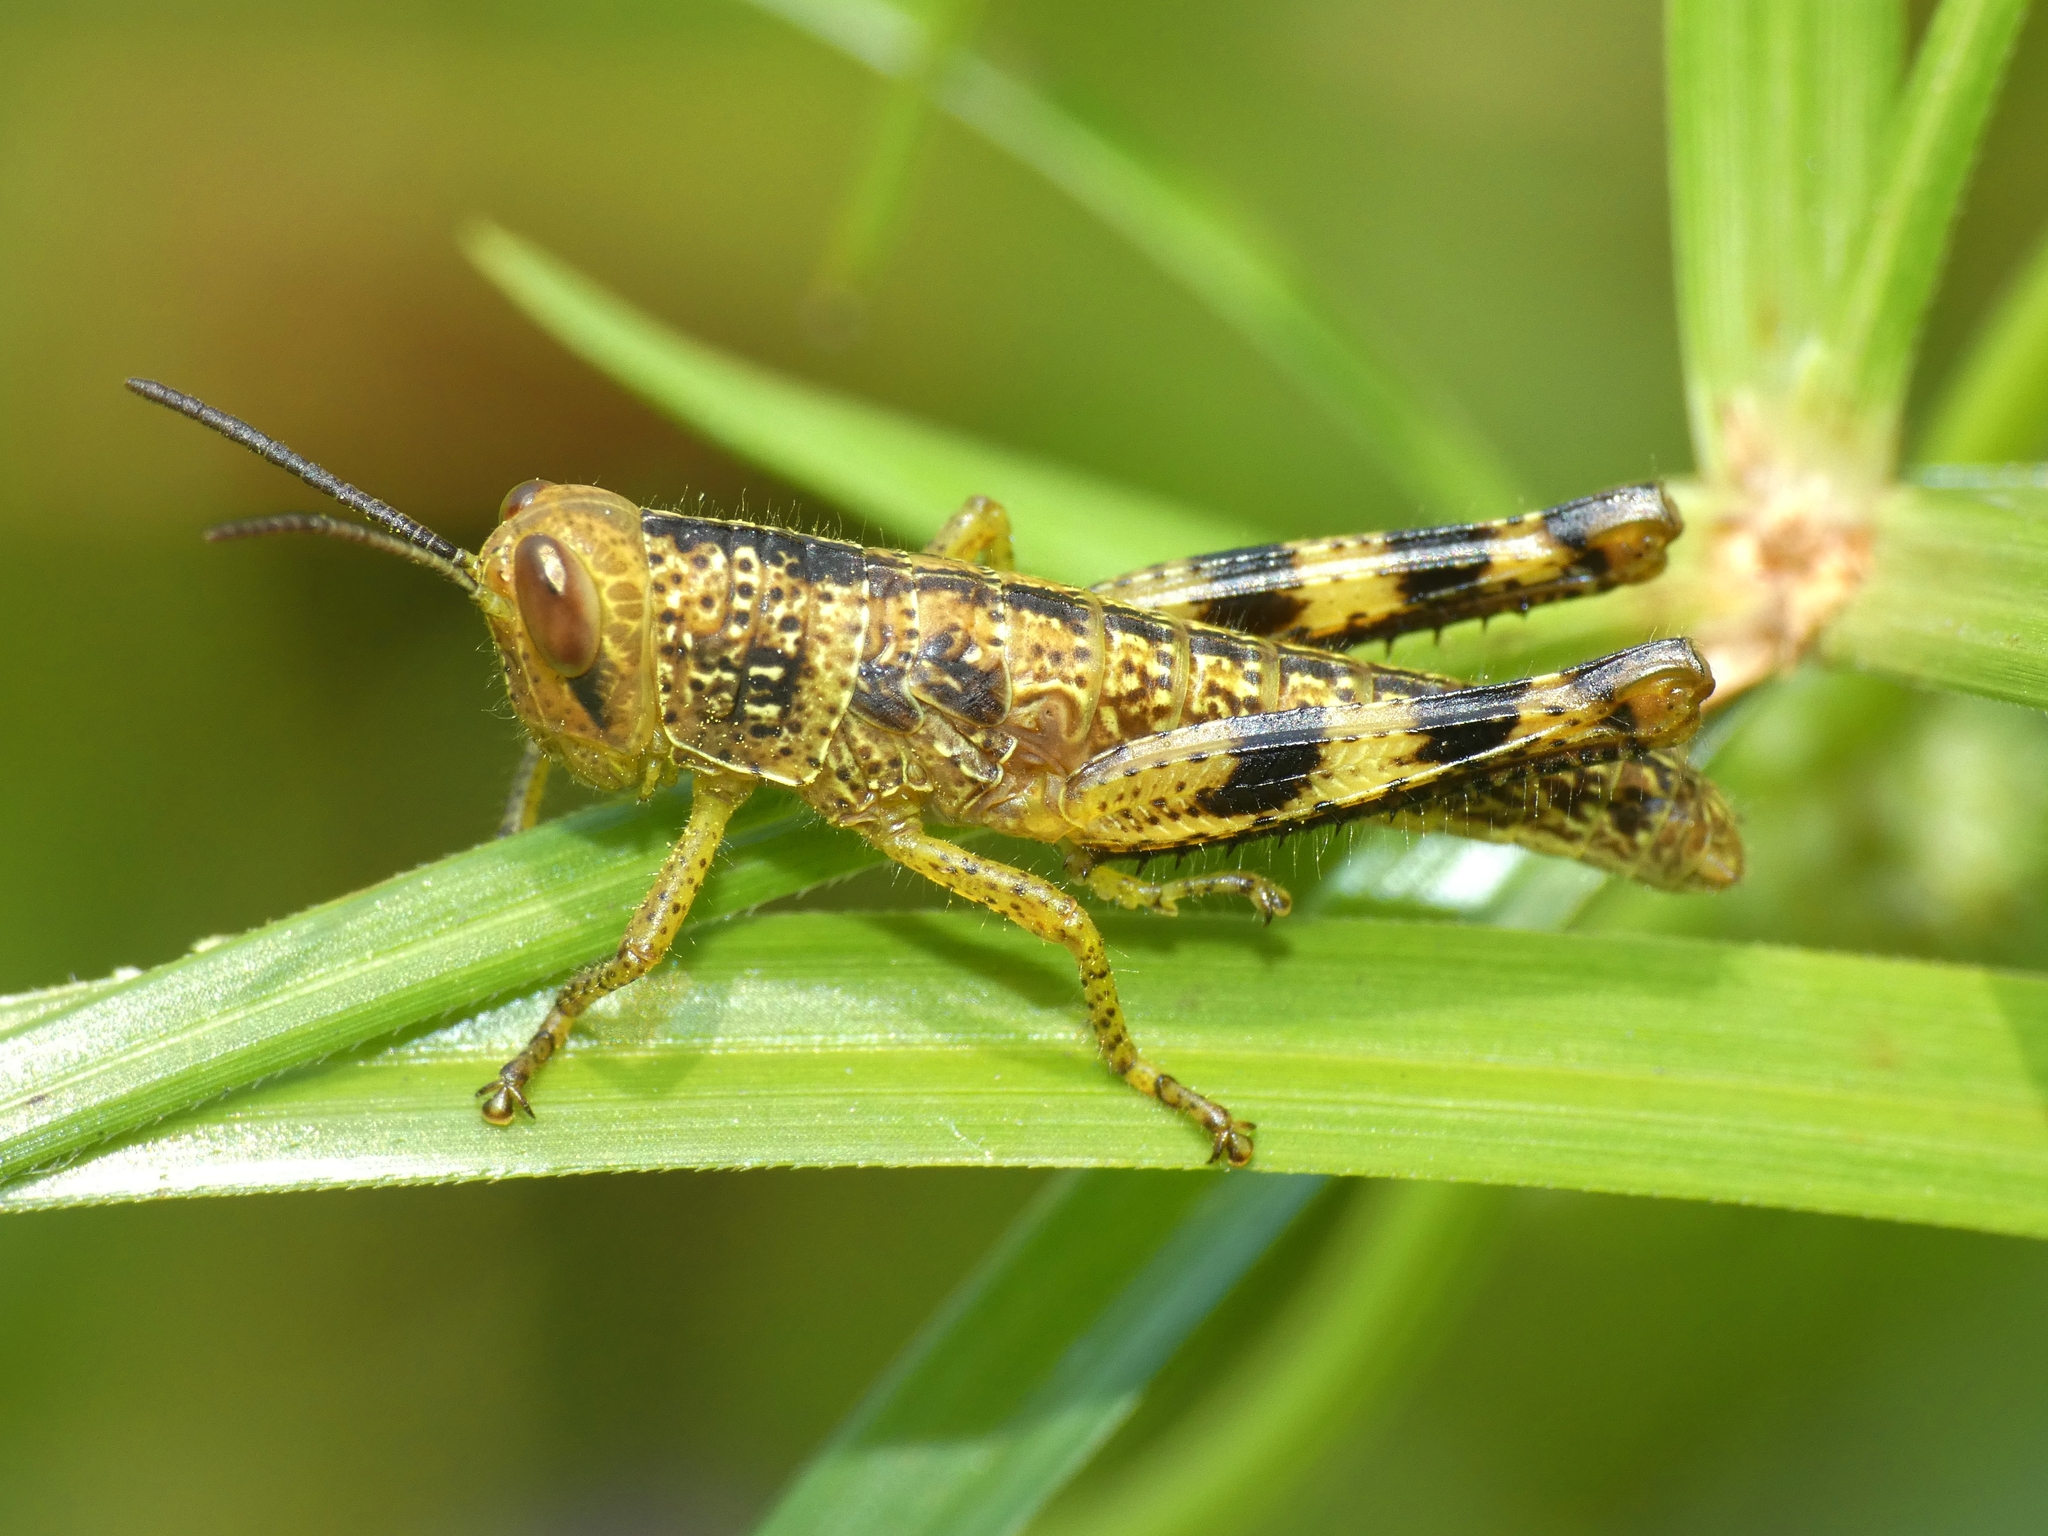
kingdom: Animalia
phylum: Arthropoda
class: Insecta
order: Orthoptera
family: Acrididae
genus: Valanga
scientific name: Valanga irregularis
